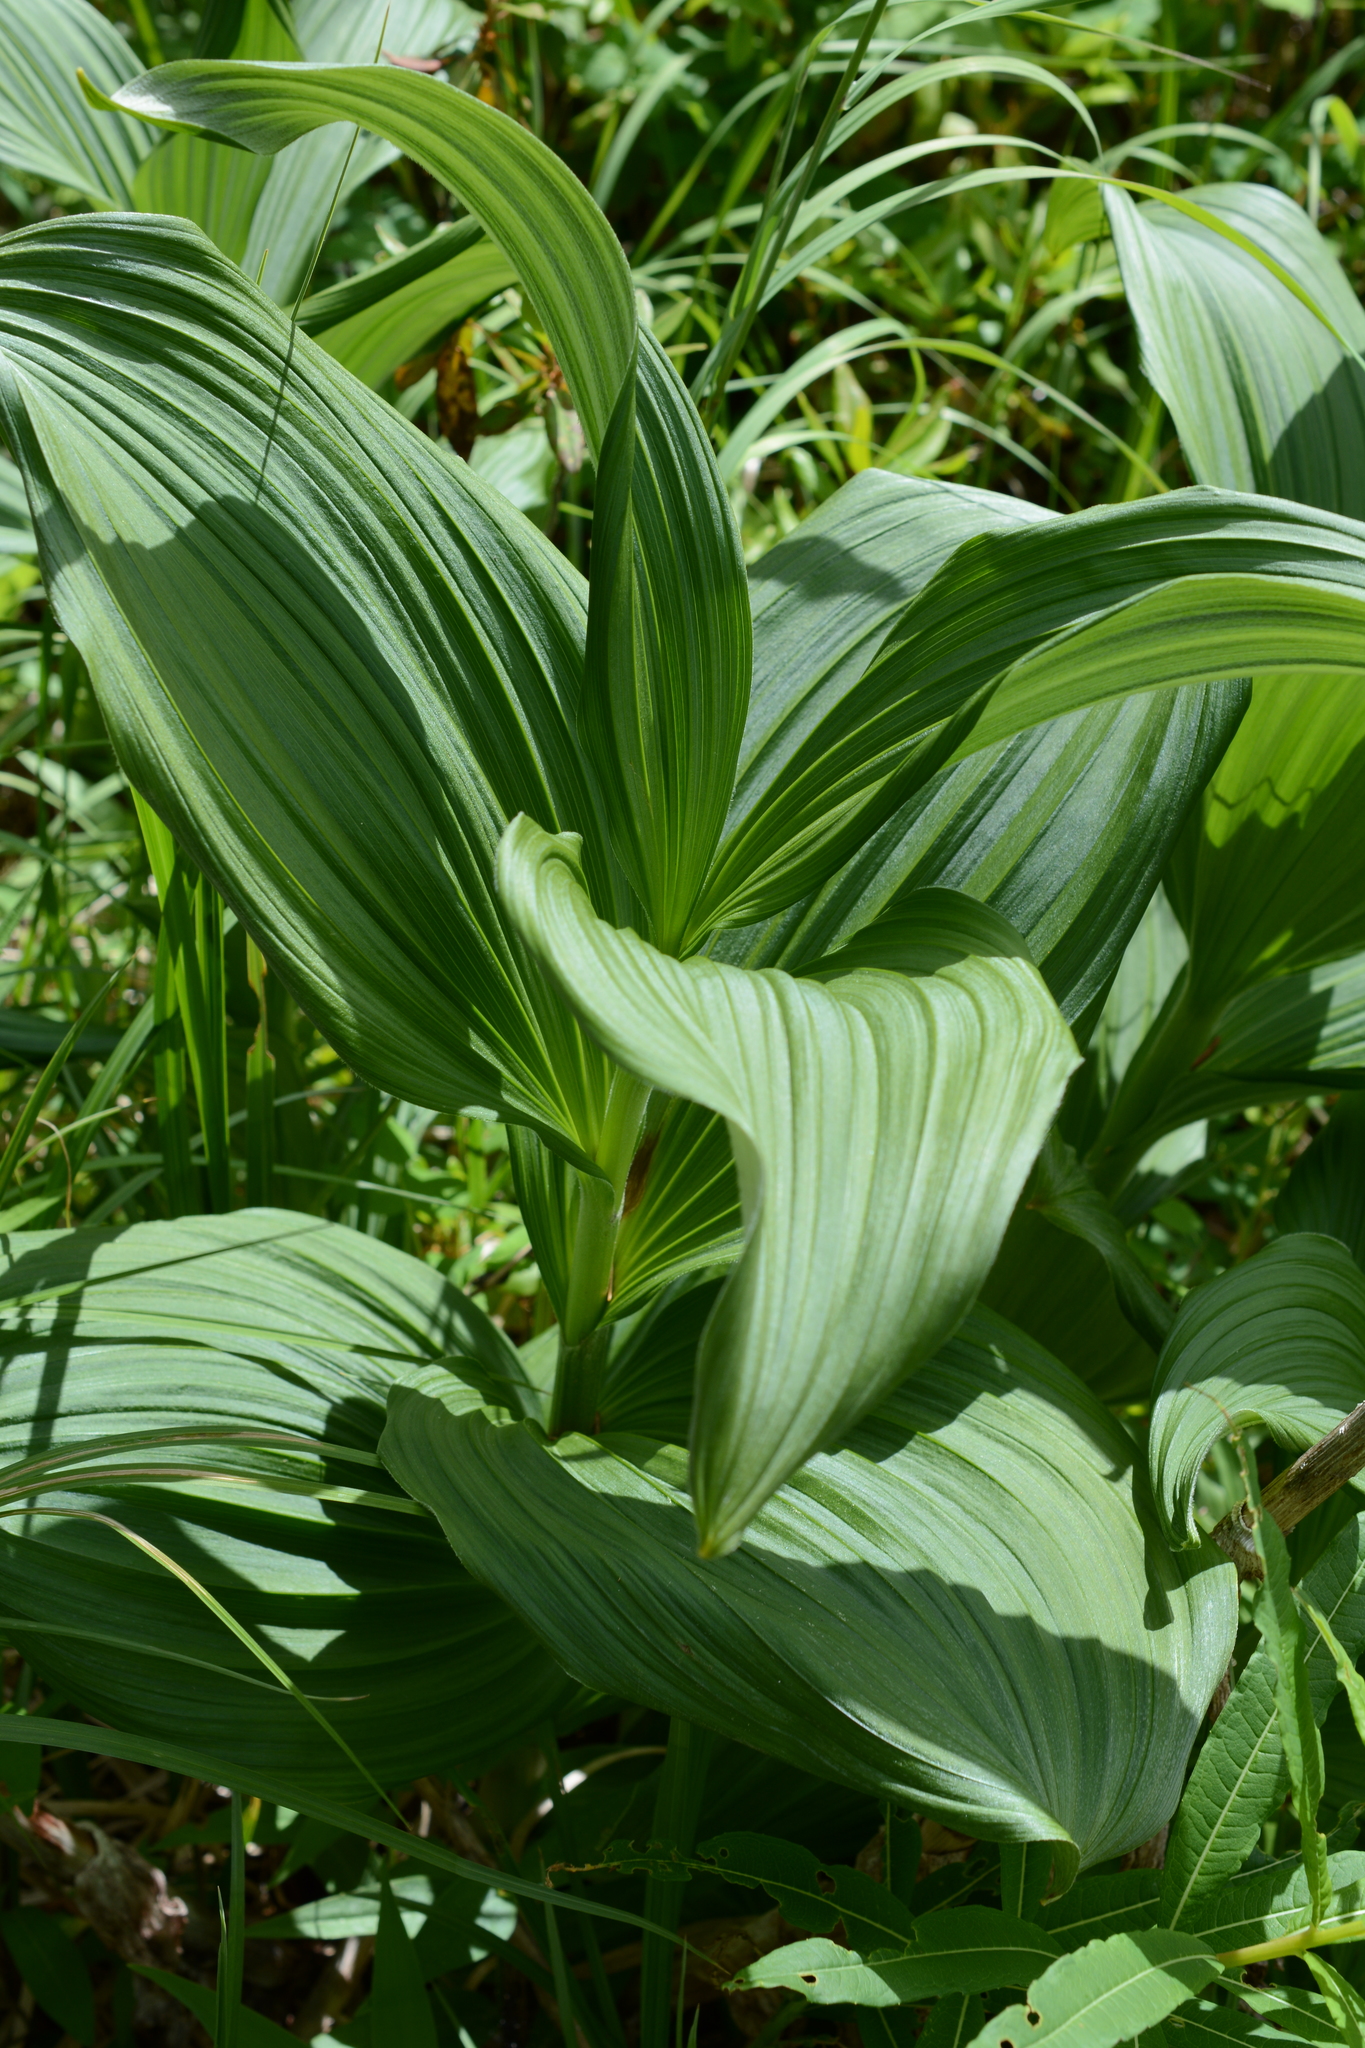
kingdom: Plantae
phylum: Tracheophyta
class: Liliopsida
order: Liliales
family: Melanthiaceae
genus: Veratrum
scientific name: Veratrum viride
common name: American false hellebore
